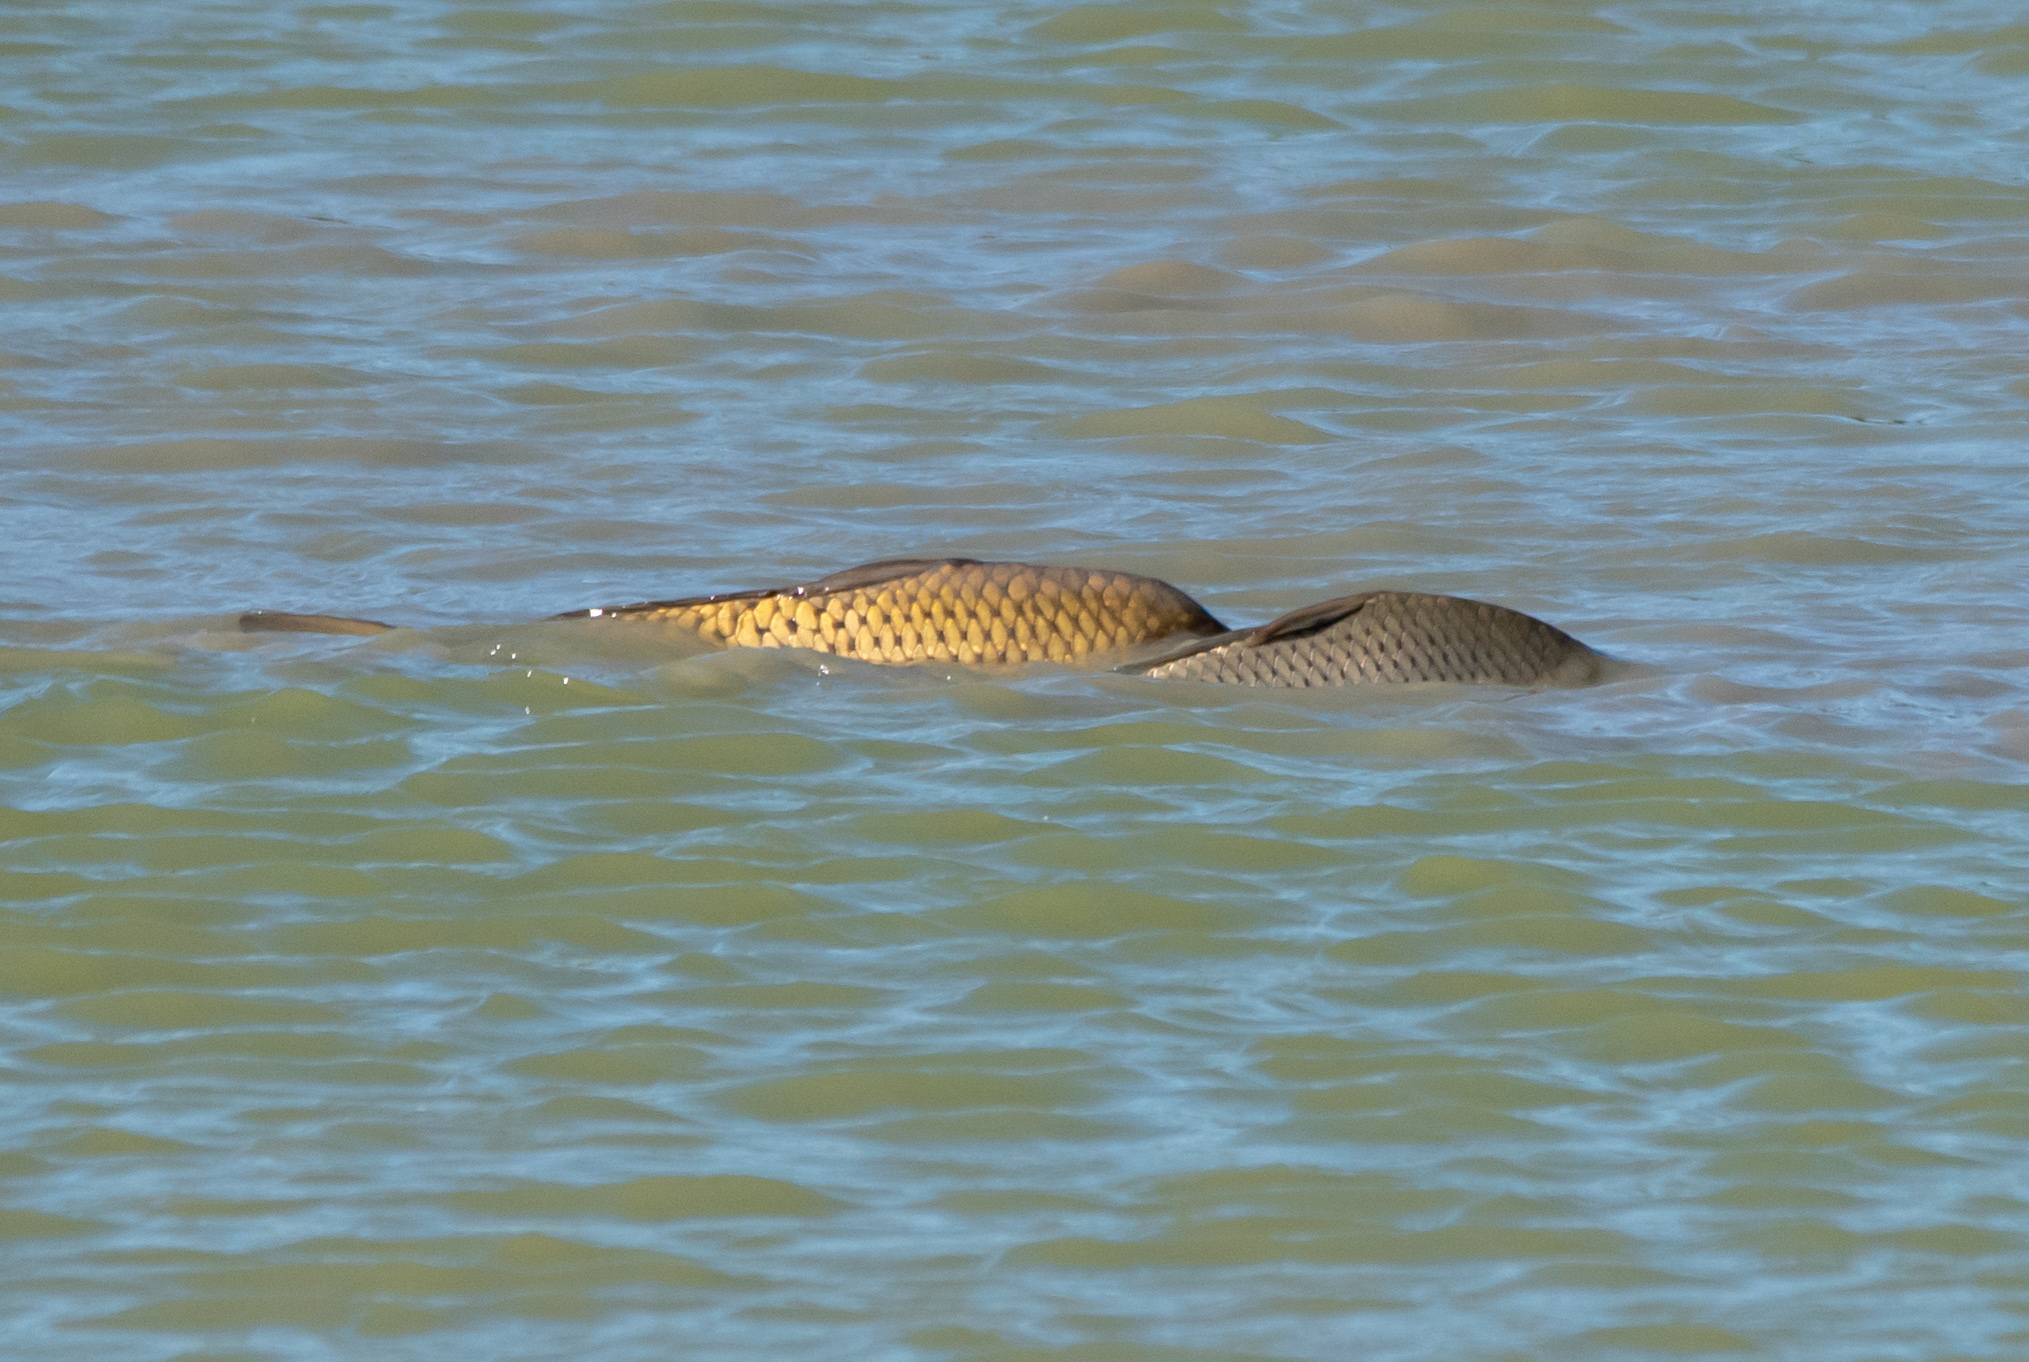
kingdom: Animalia
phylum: Chordata
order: Cypriniformes
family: Cyprinidae
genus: Cyprinus
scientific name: Cyprinus carpio
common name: Common carp
